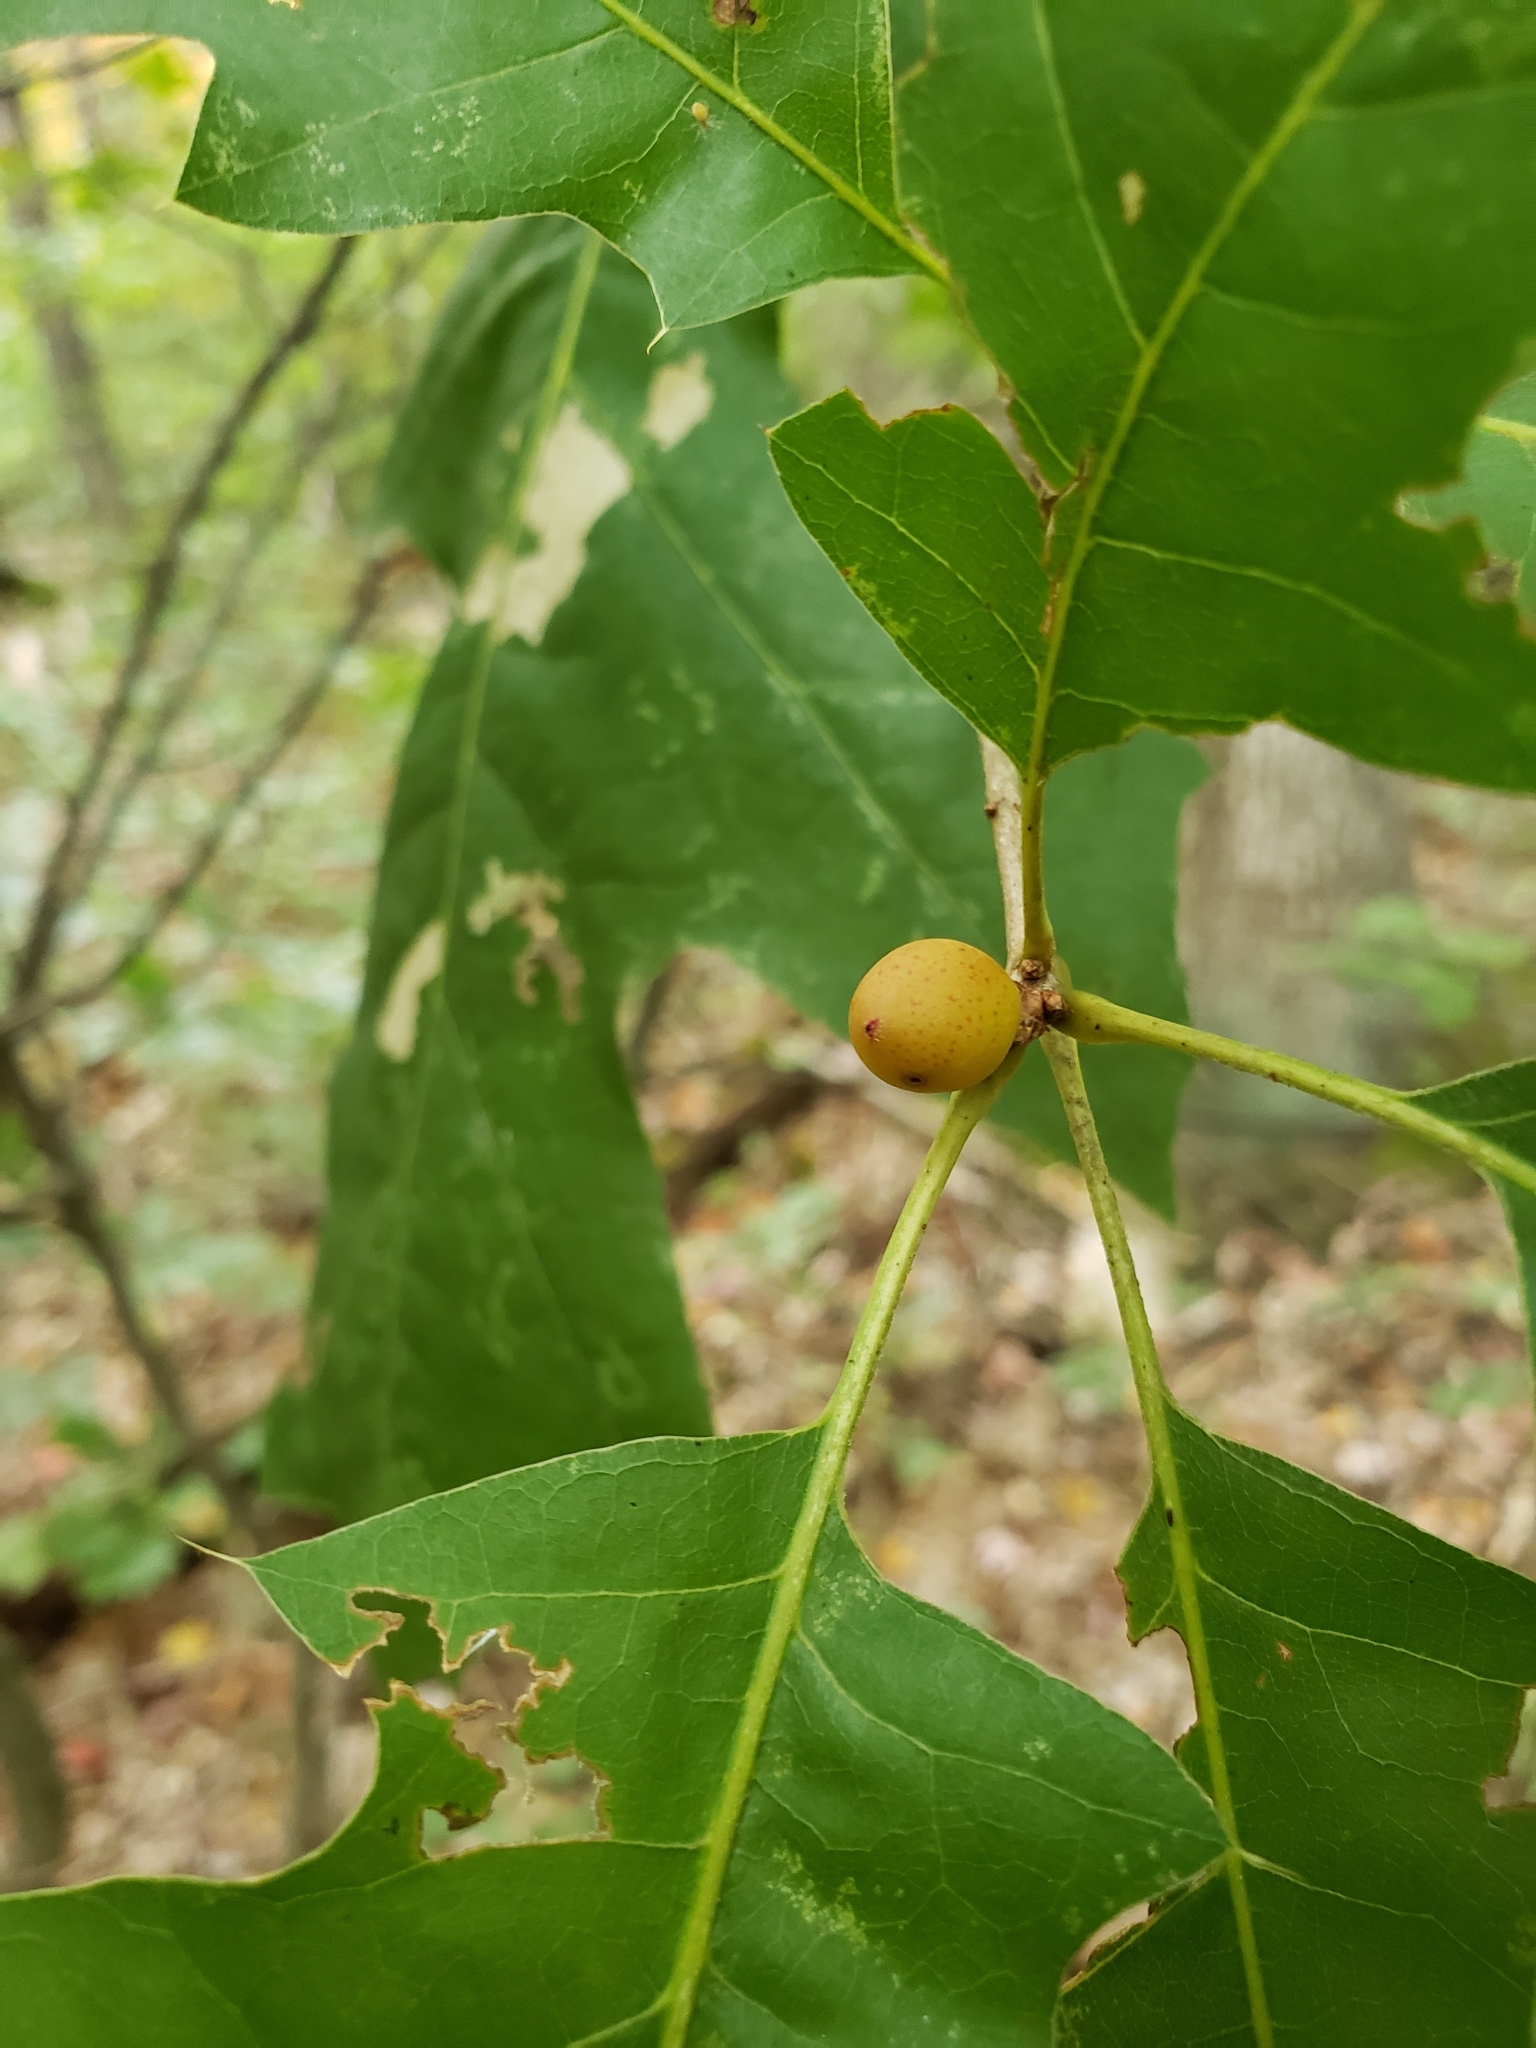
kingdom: Animalia
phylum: Arthropoda
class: Insecta
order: Hymenoptera
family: Cynipidae
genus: Amphibolips
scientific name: Amphibolips
